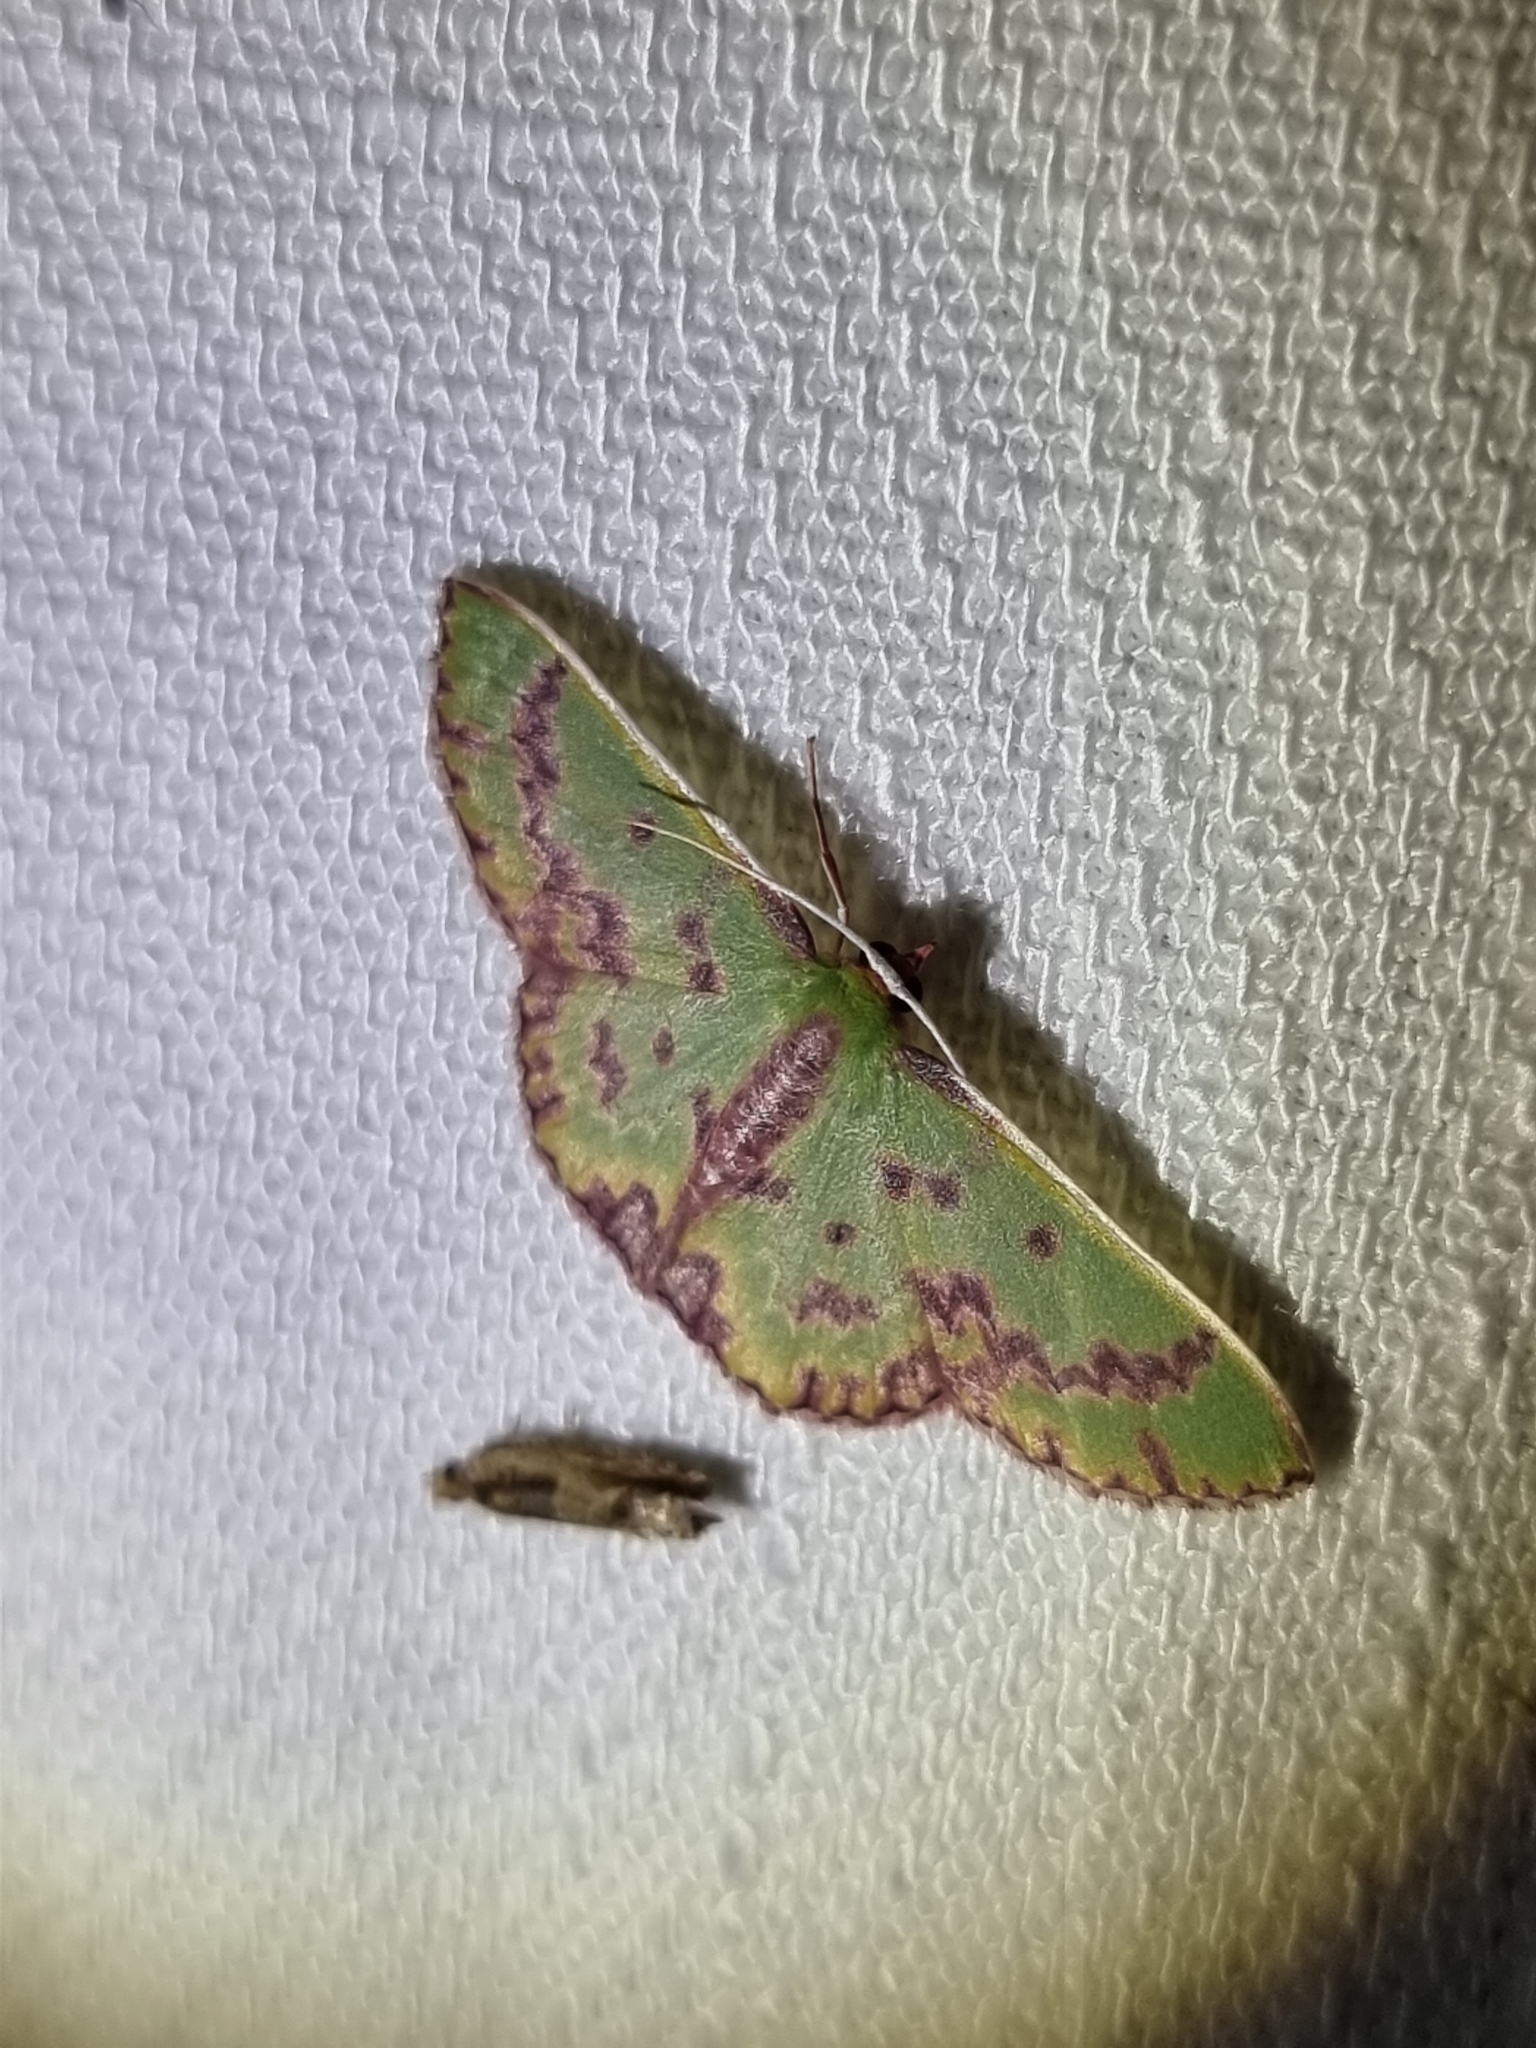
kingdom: Animalia
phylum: Arthropoda
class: Insecta
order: Lepidoptera
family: Geometridae
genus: Prasinocyma
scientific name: Prasinocyma rhodocosma
